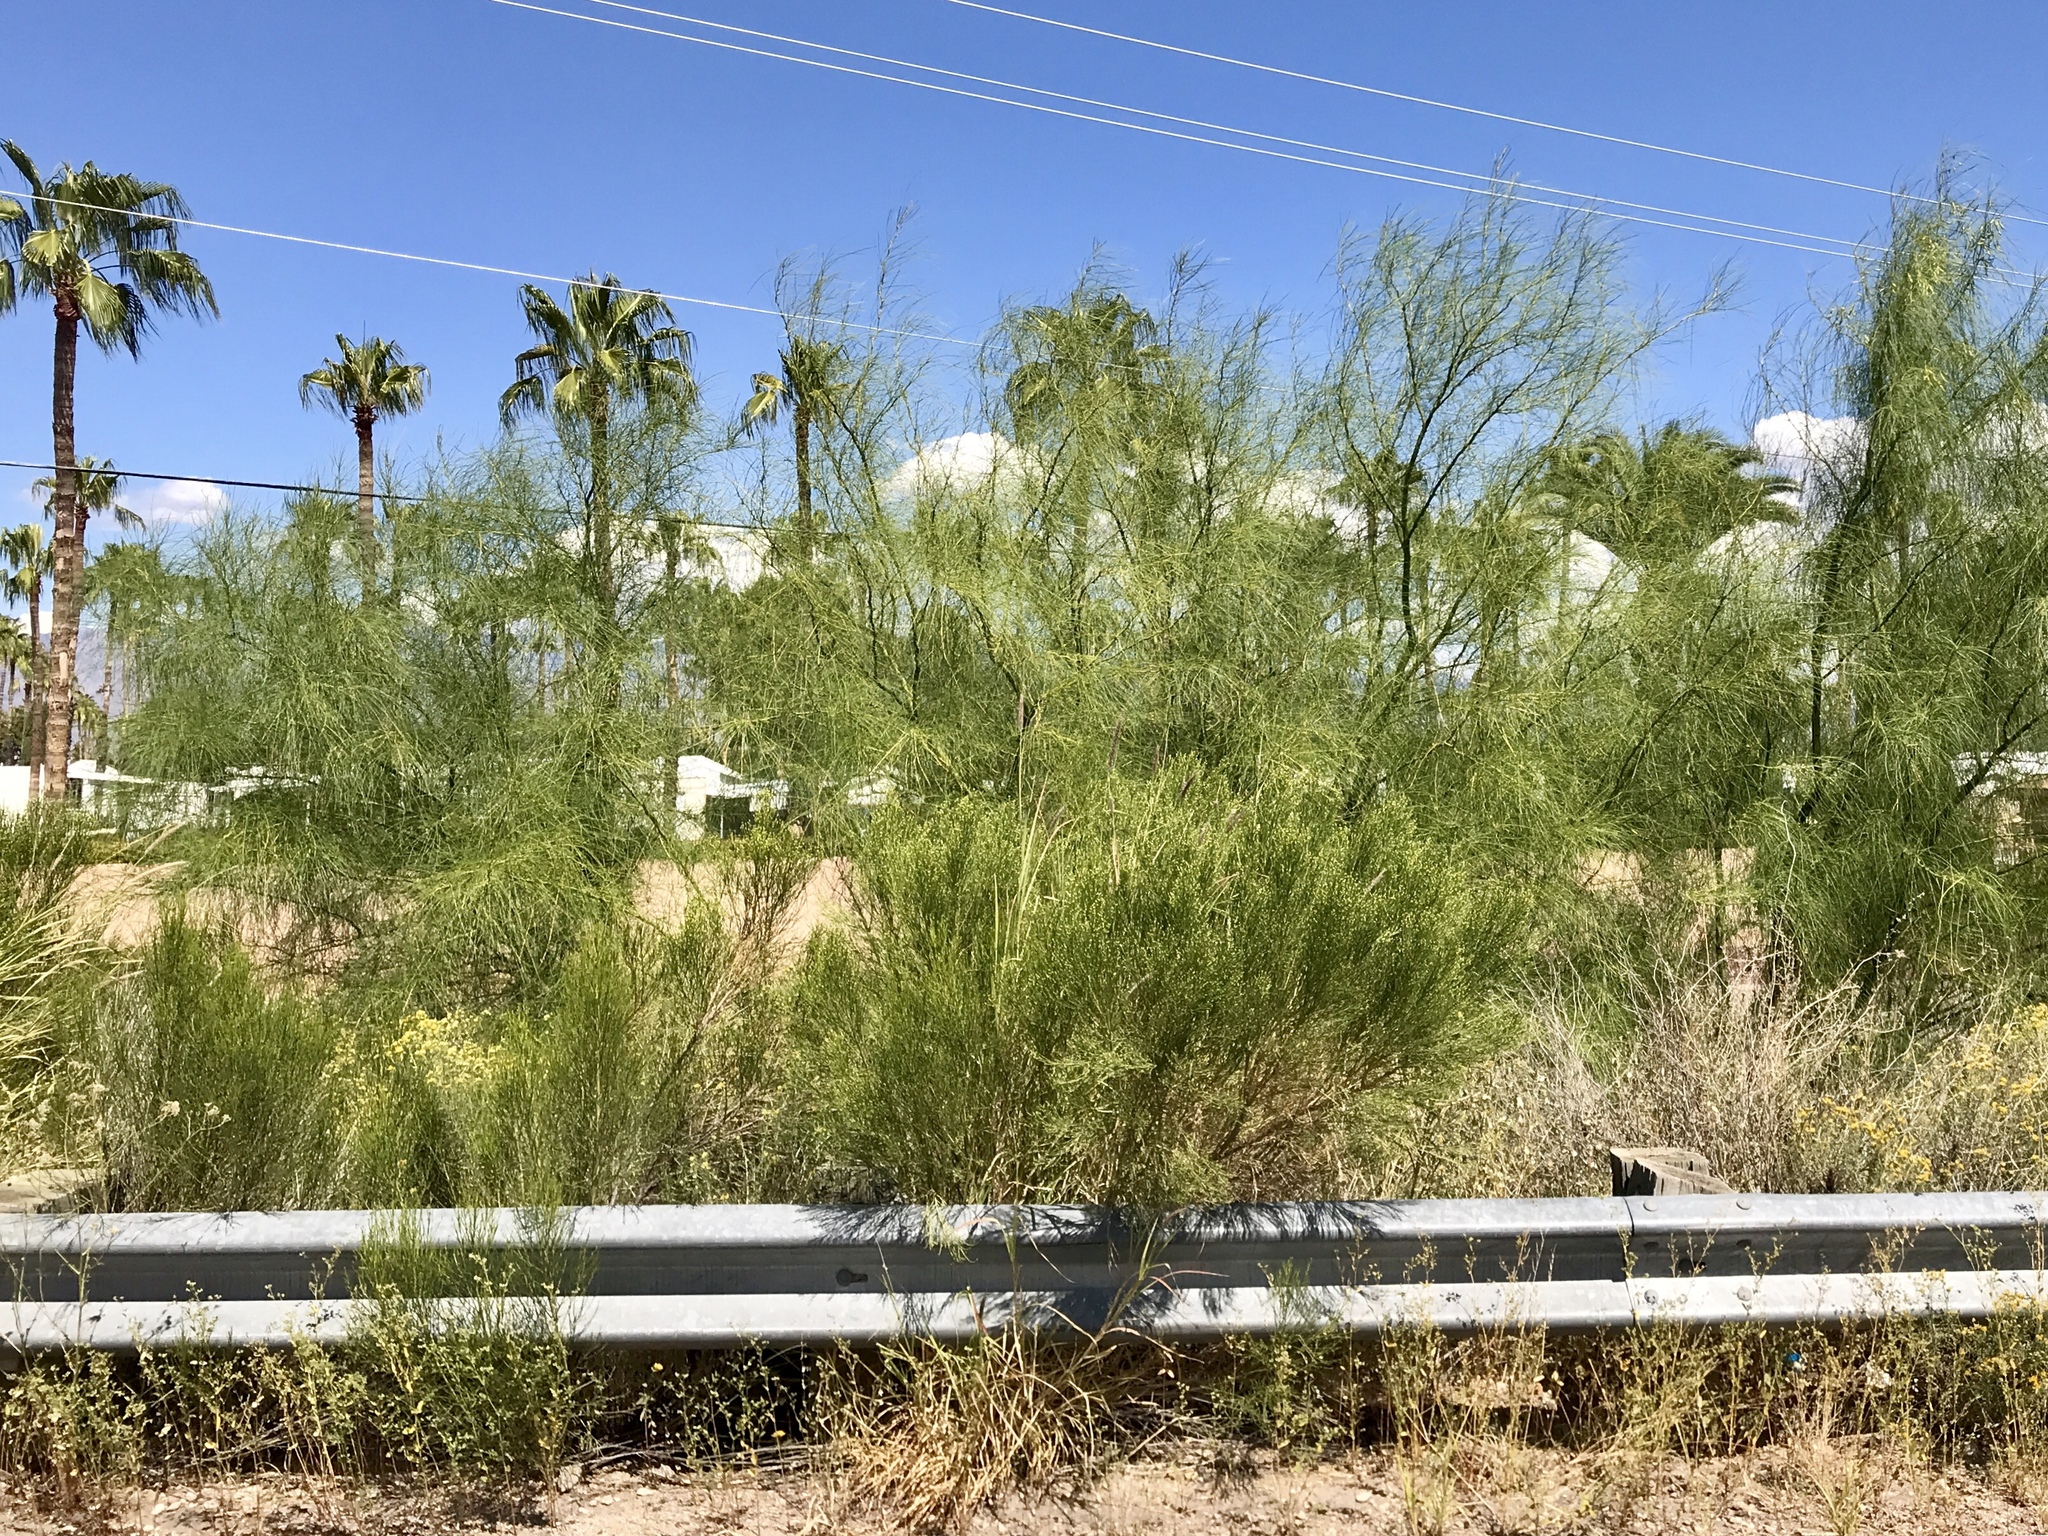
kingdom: Plantae
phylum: Tracheophyta
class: Magnoliopsida
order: Fabales
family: Fabaceae
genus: Parkinsonia
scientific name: Parkinsonia aculeata
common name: Jerusalem thorn
